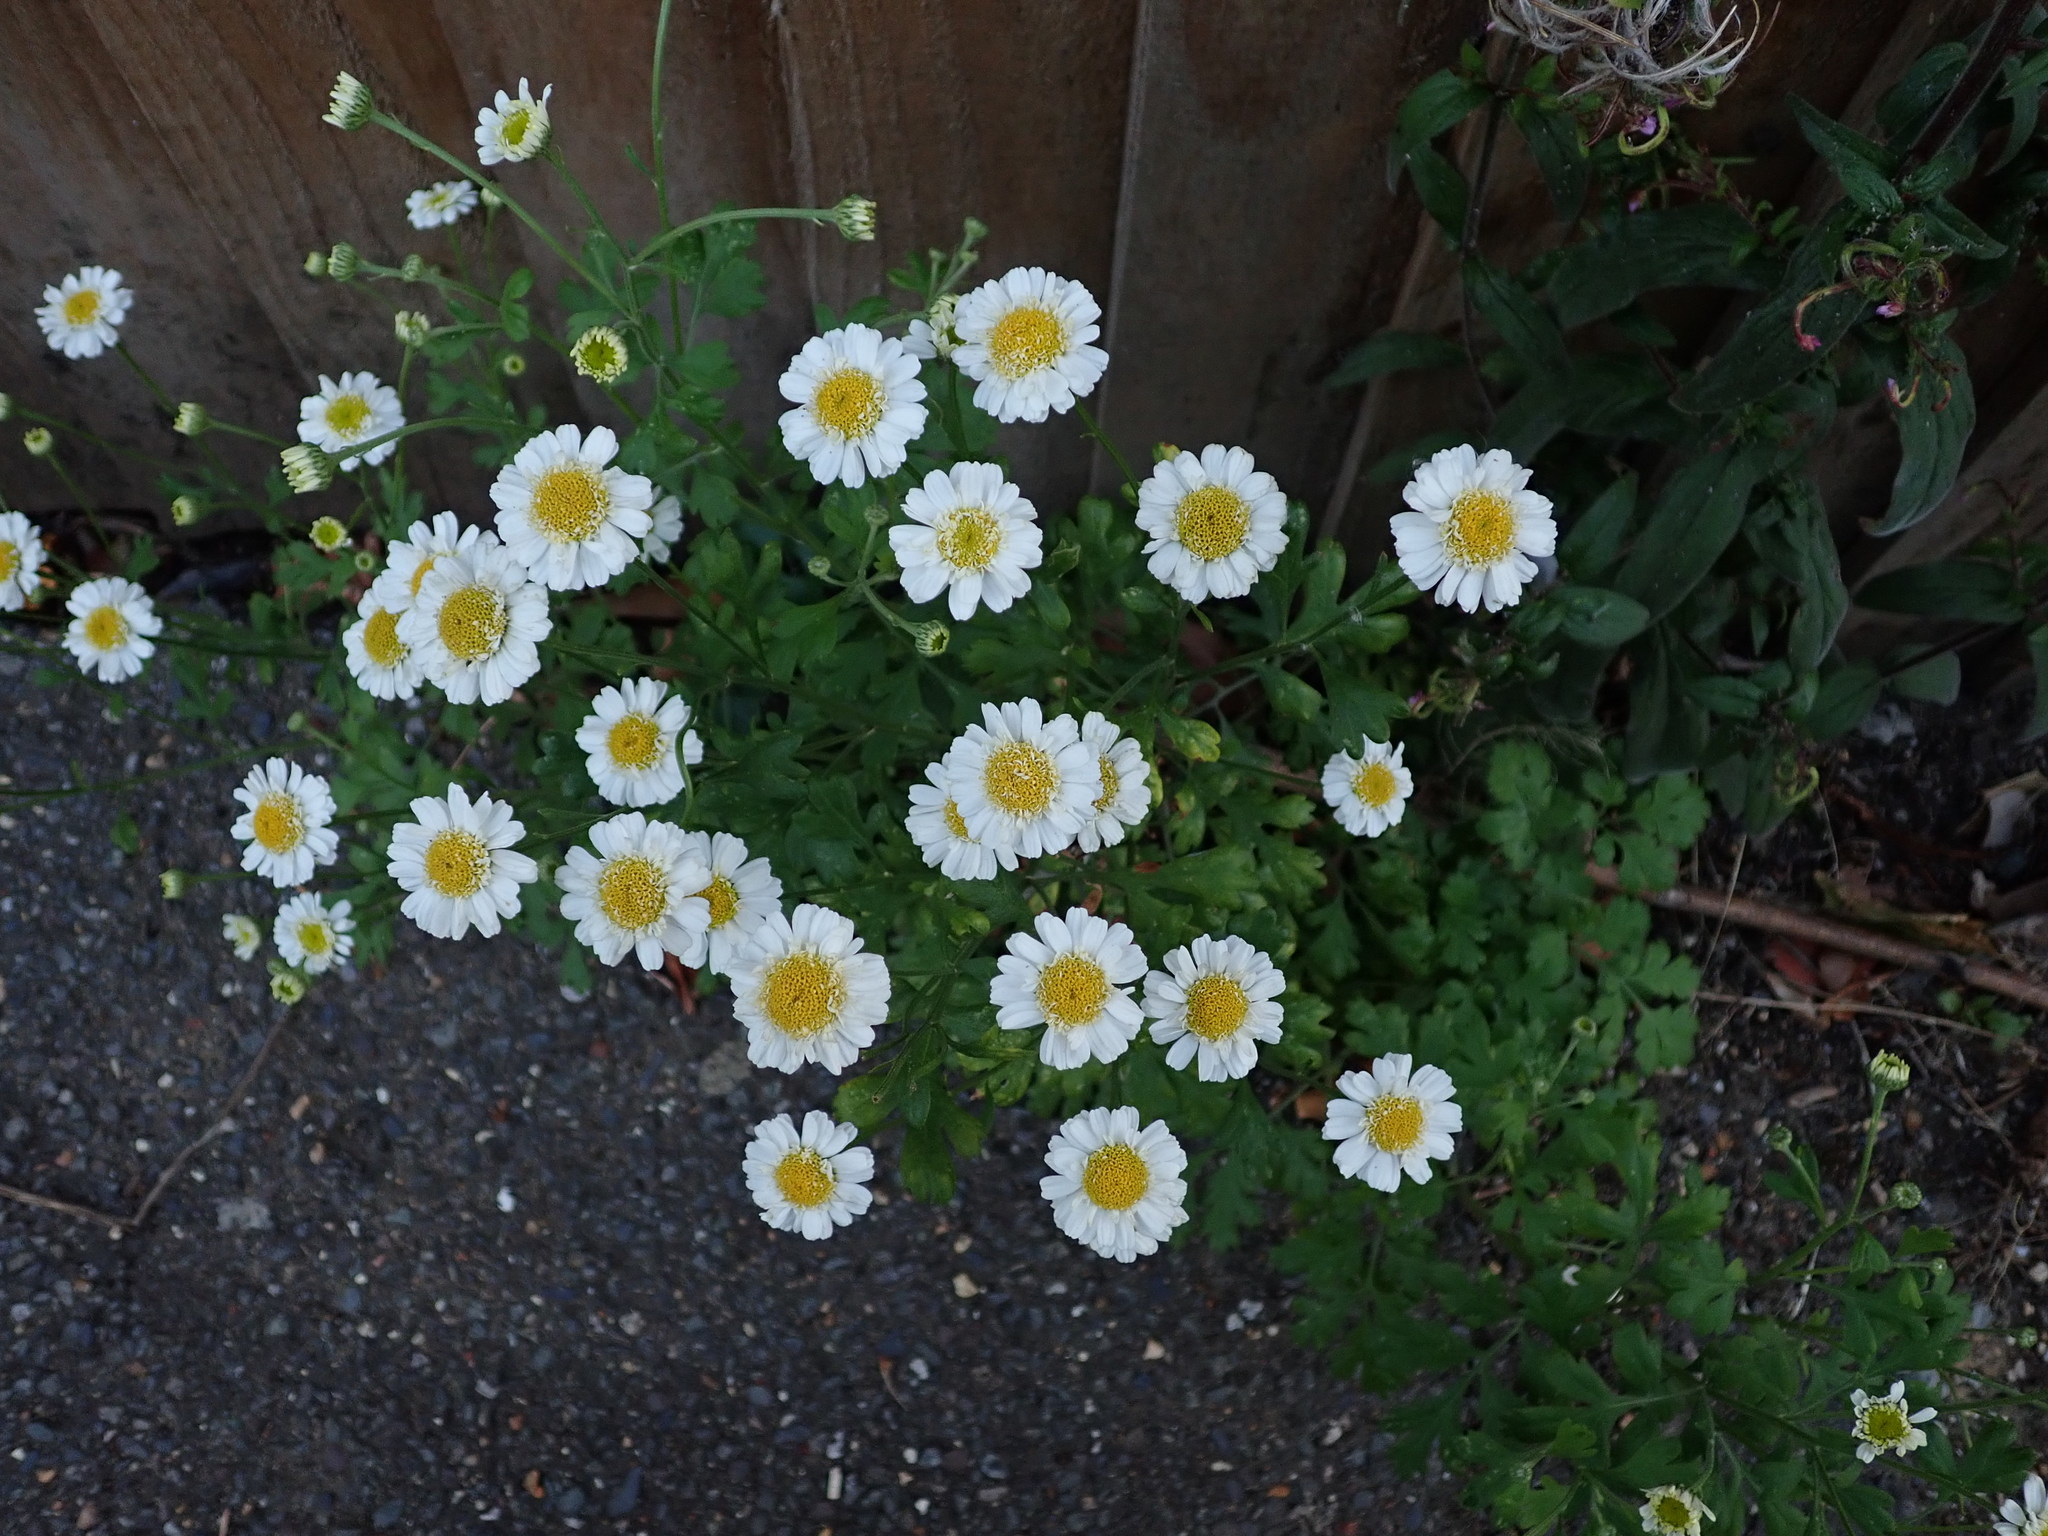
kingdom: Plantae
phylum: Tracheophyta
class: Magnoliopsida
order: Asterales
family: Asteraceae
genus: Tanacetum
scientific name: Tanacetum parthenium
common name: Feverfew
